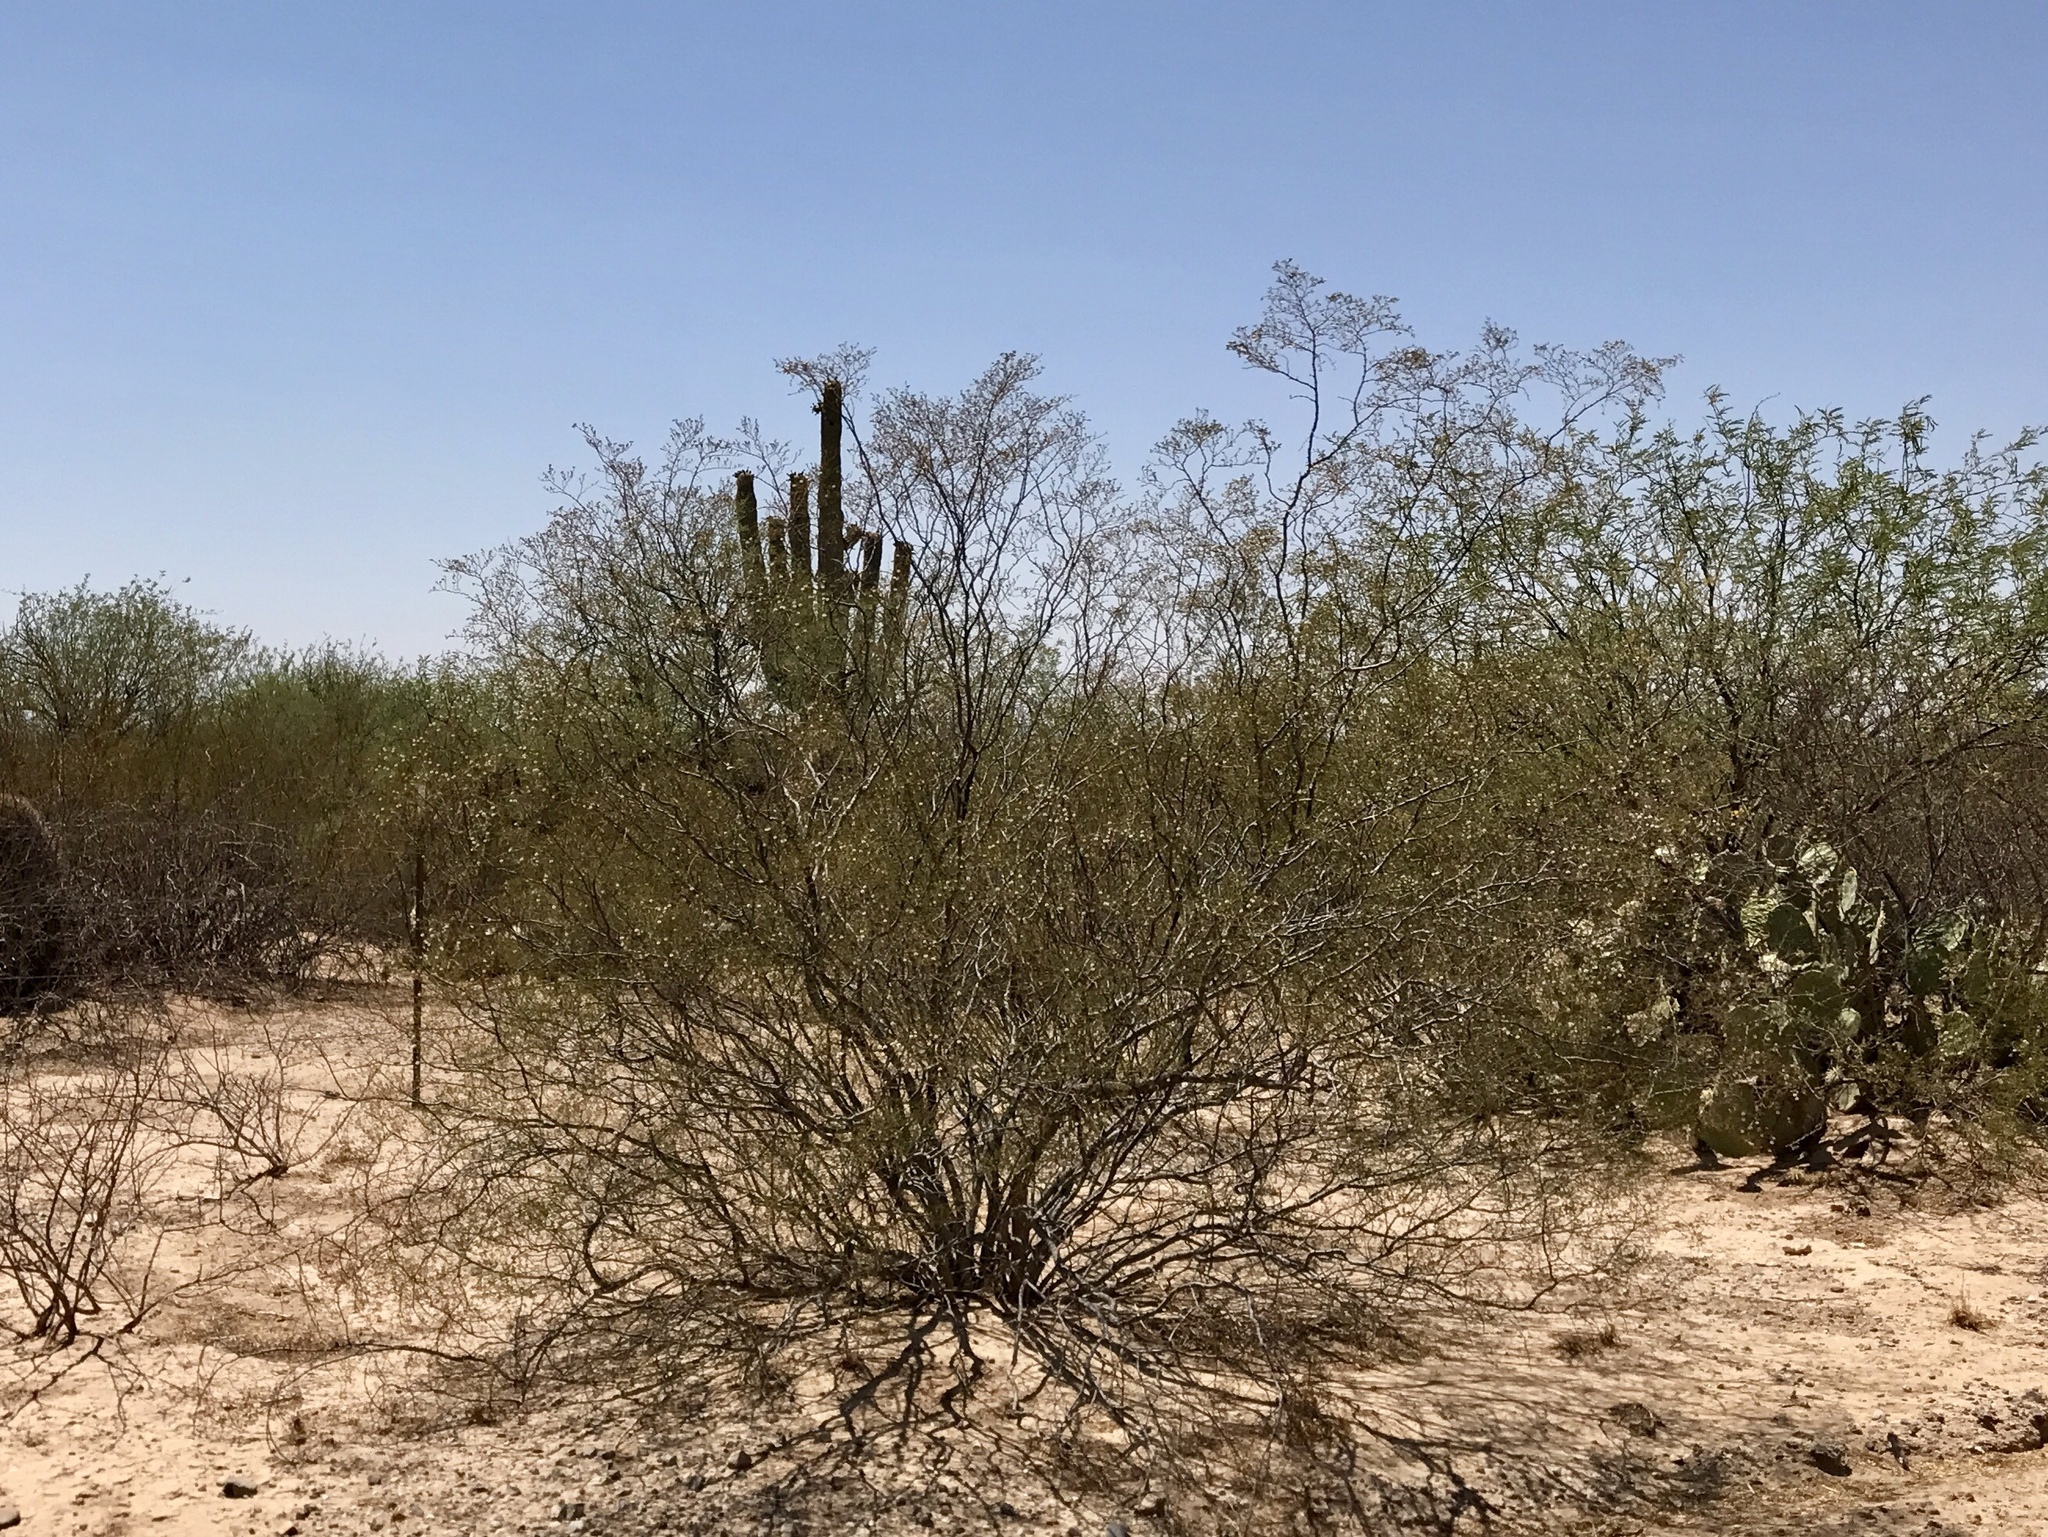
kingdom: Plantae
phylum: Tracheophyta
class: Magnoliopsida
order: Zygophyllales
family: Zygophyllaceae
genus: Larrea
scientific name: Larrea tridentata
